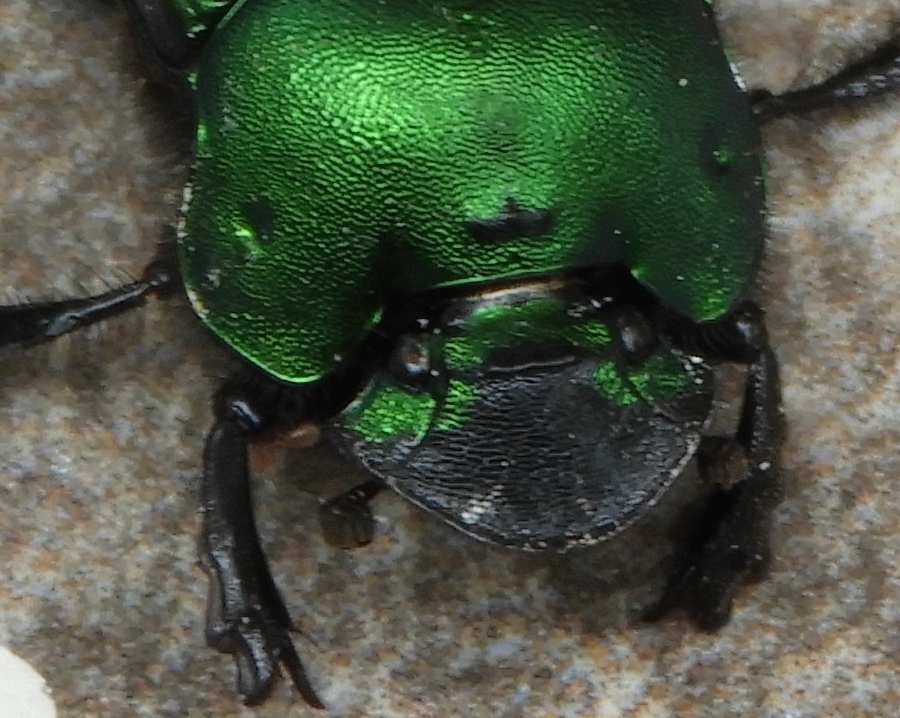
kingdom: Animalia
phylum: Arthropoda
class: Insecta
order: Coleoptera
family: Scarabaeidae
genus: Phanaeus
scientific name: Phanaeus furiosus
